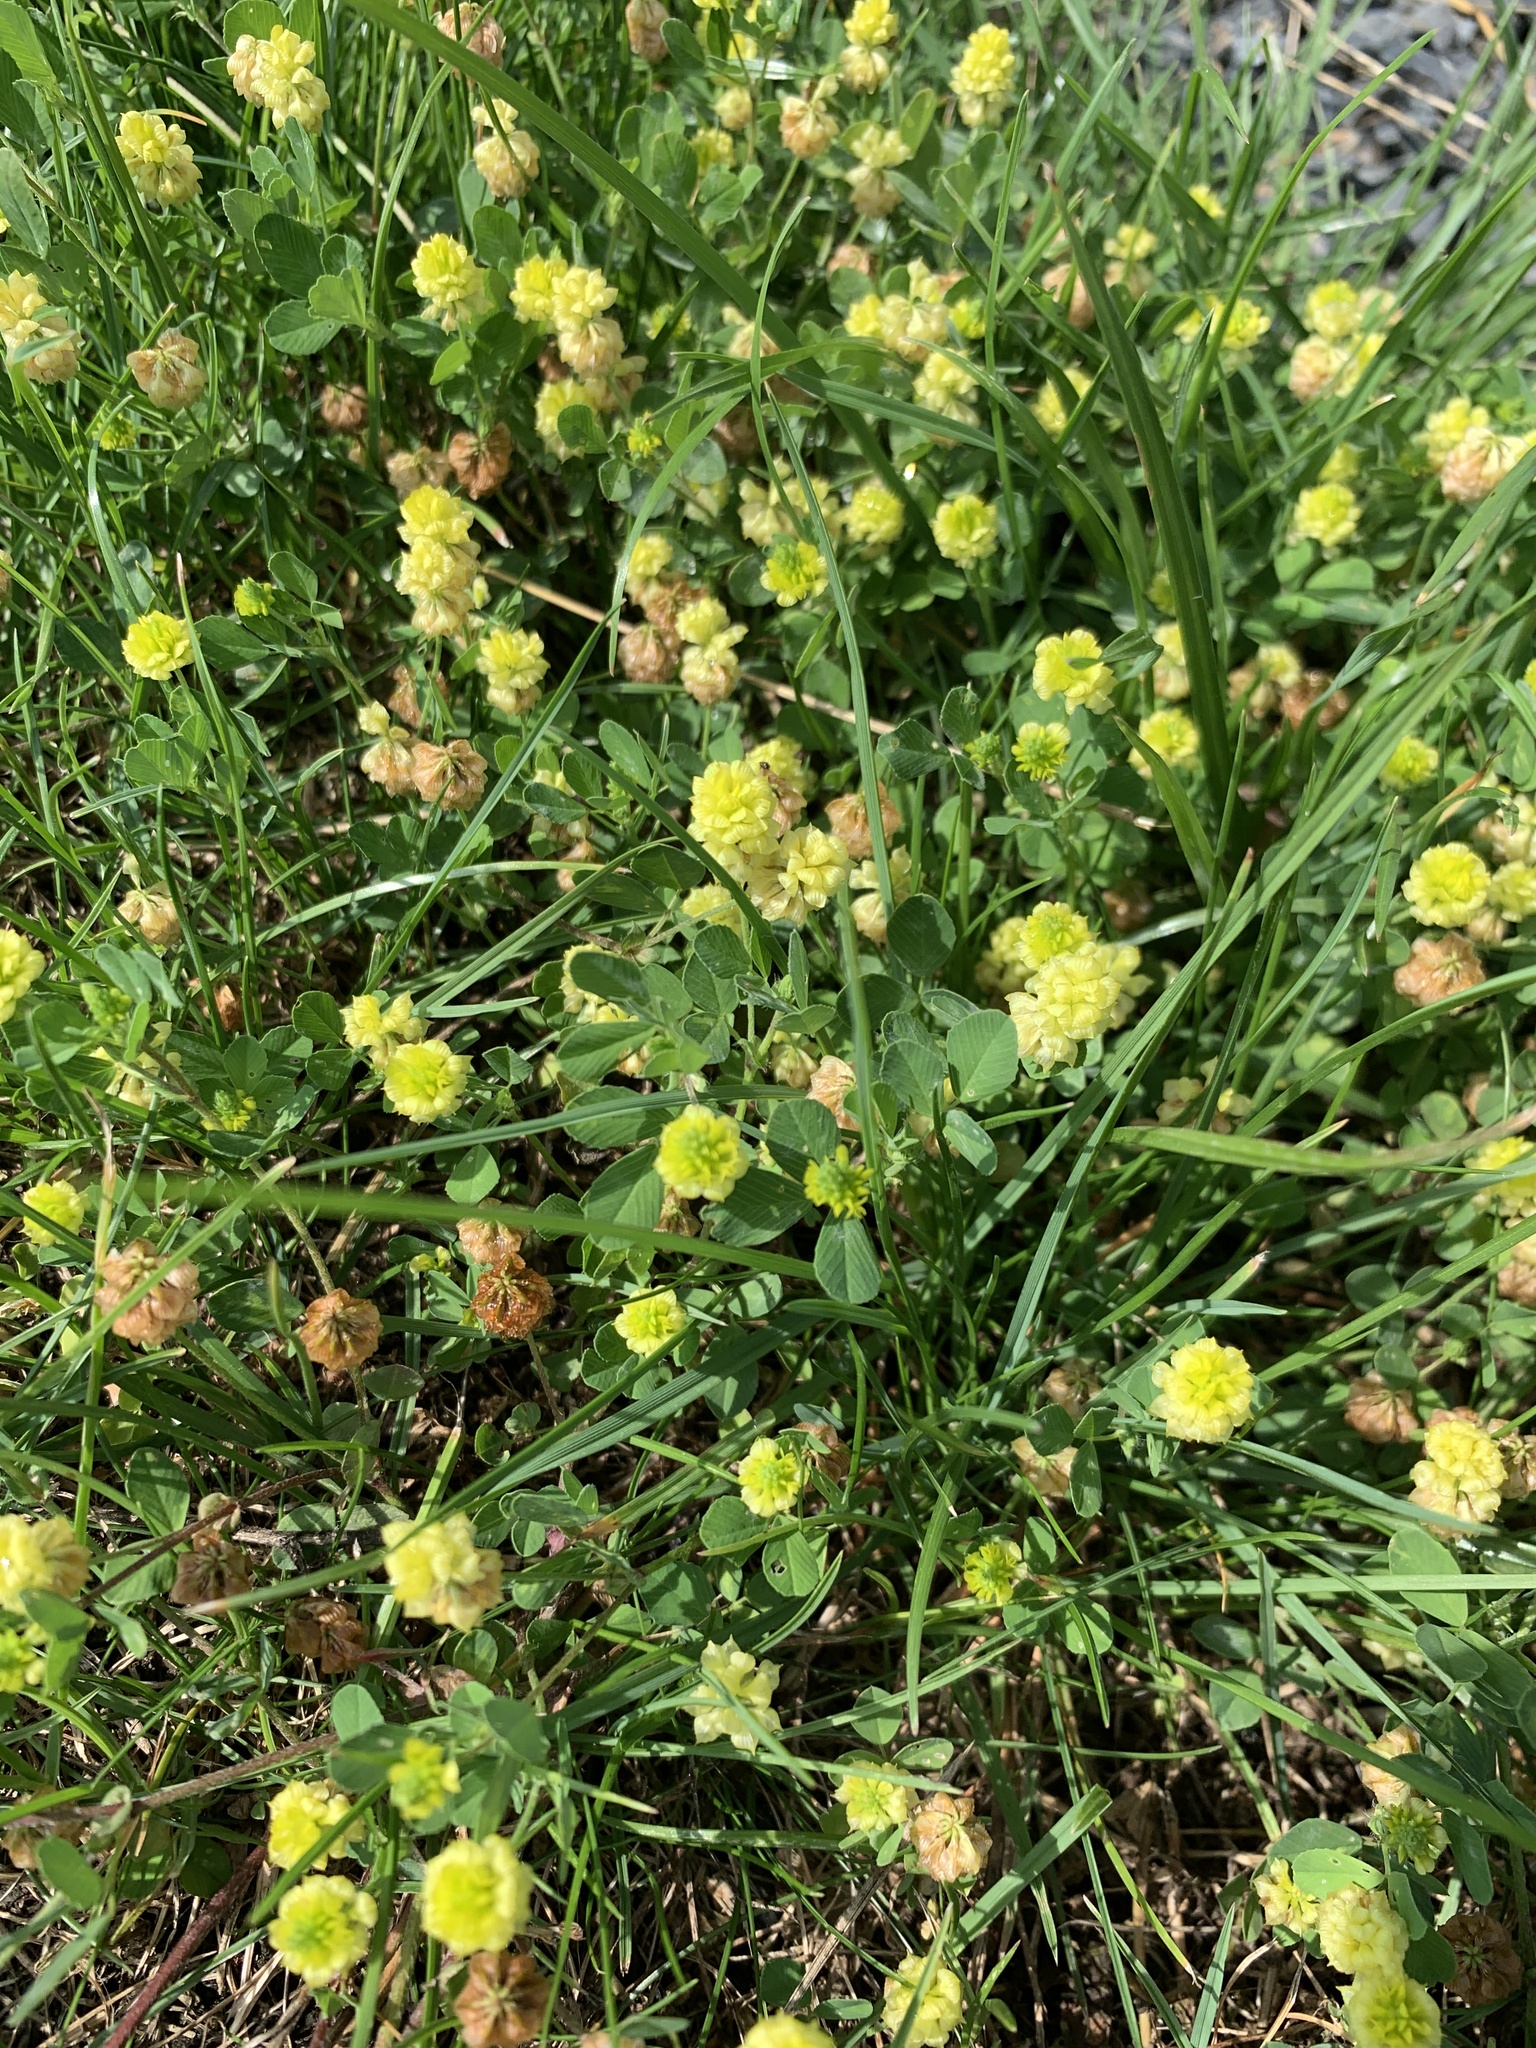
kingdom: Plantae
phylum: Tracheophyta
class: Magnoliopsida
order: Fabales
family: Fabaceae
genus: Trifolium
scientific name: Trifolium campestre
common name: Field clover
